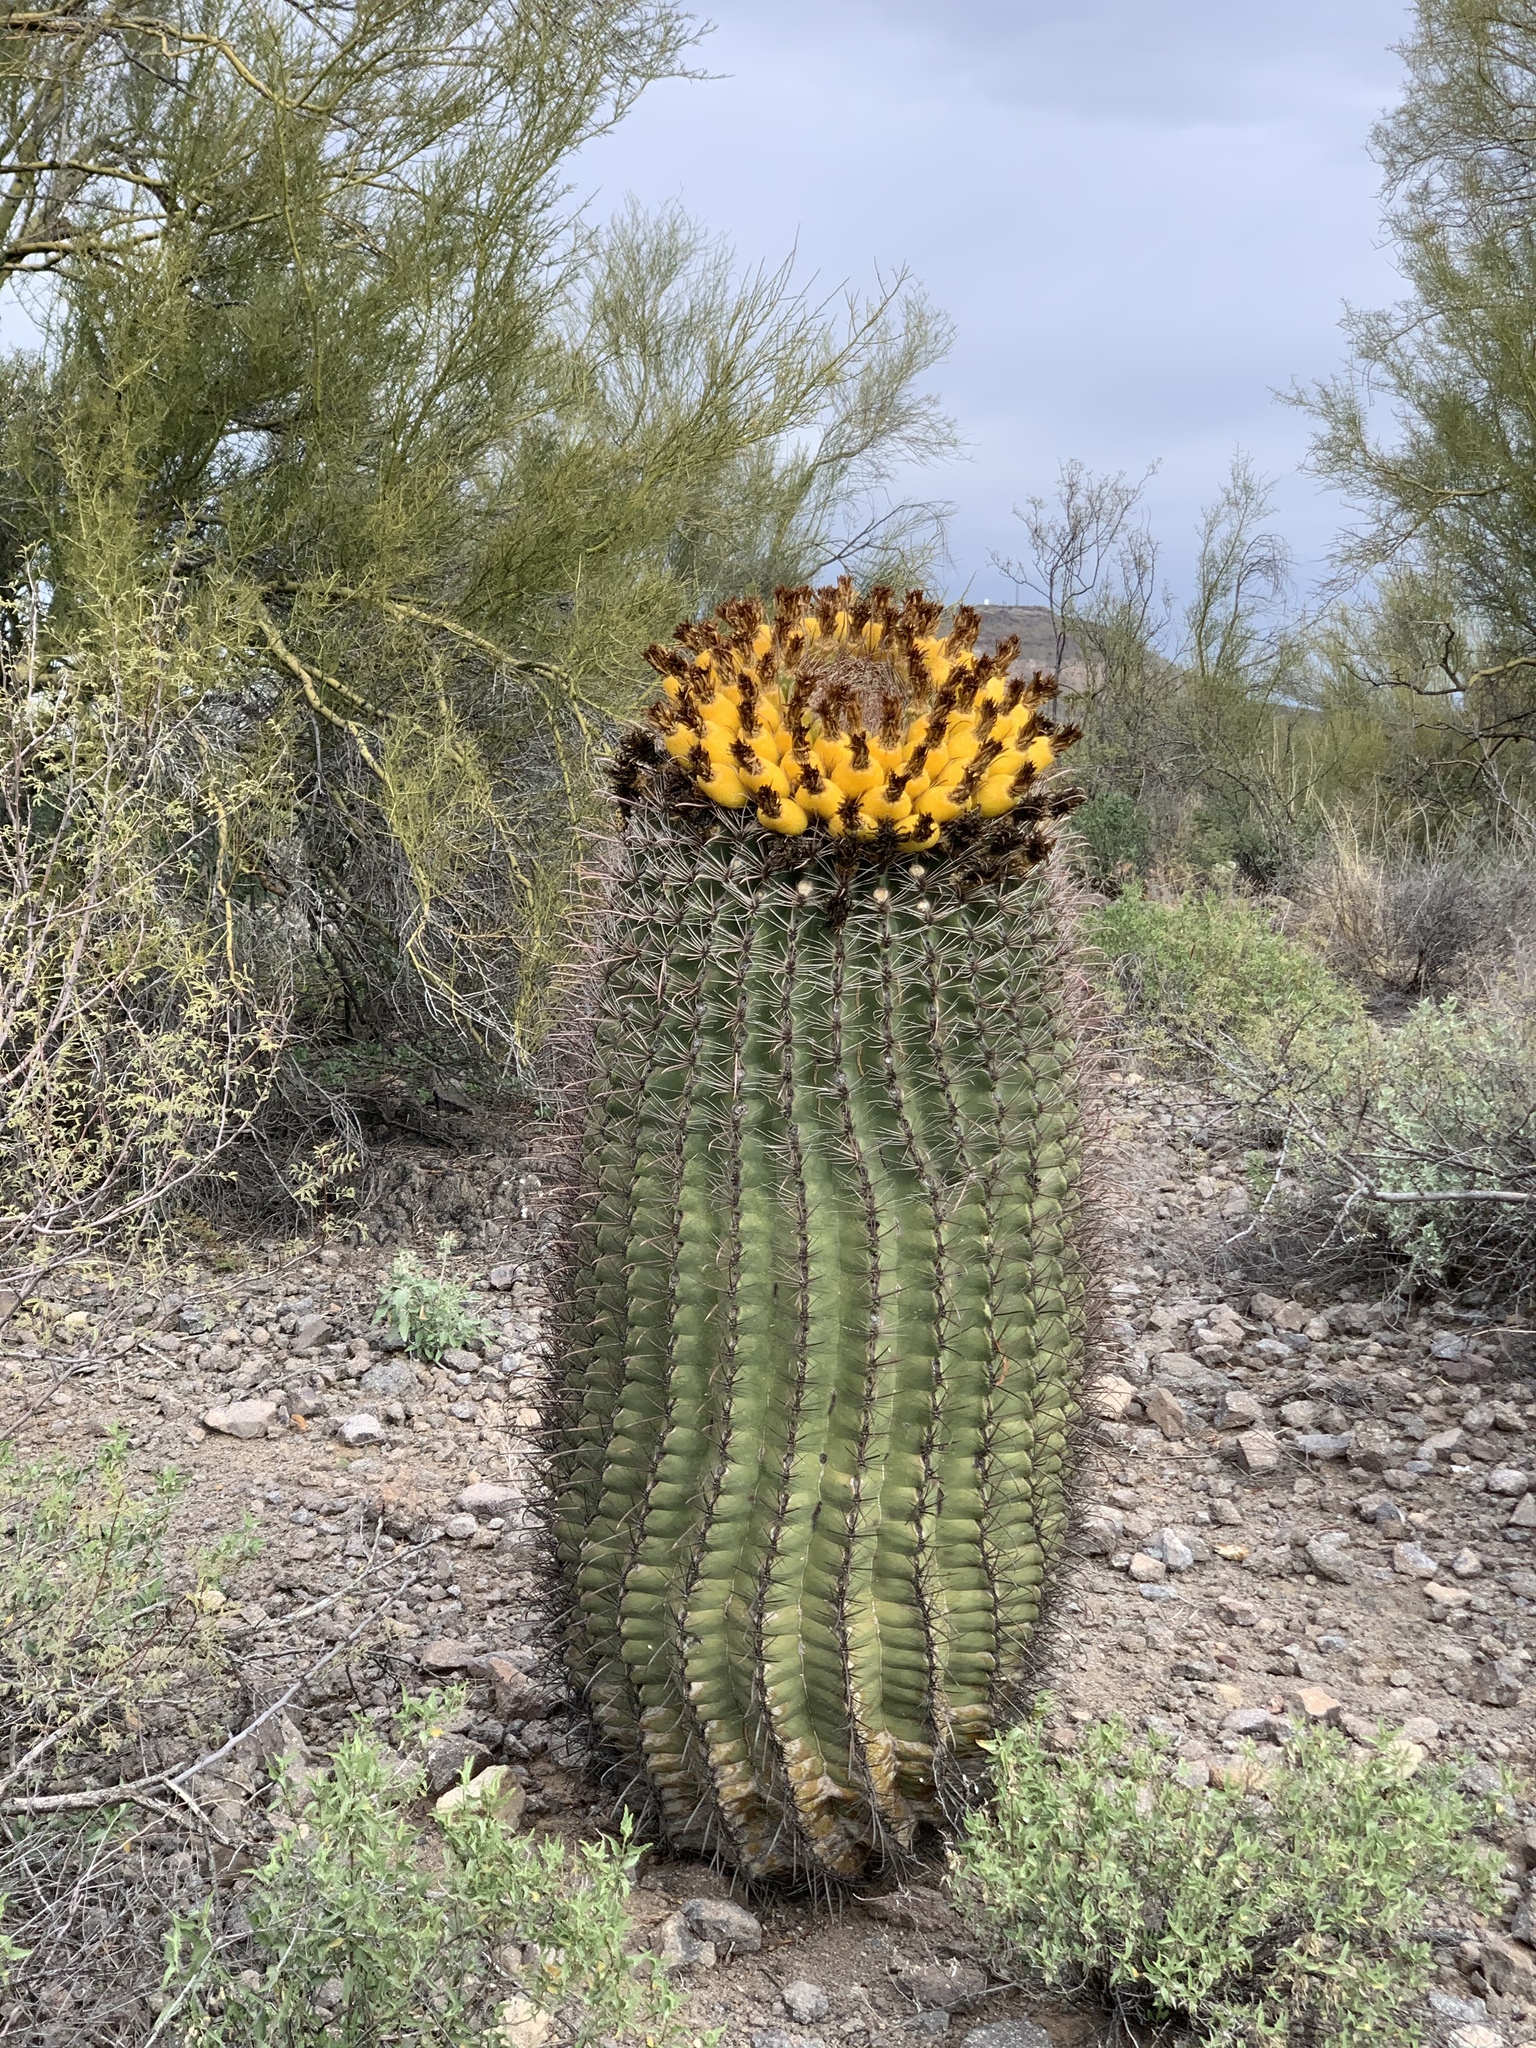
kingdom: Plantae
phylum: Tracheophyta
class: Magnoliopsida
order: Caryophyllales
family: Cactaceae
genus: Ferocactus
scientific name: Ferocactus wislizeni
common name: Candy barrel cactus
